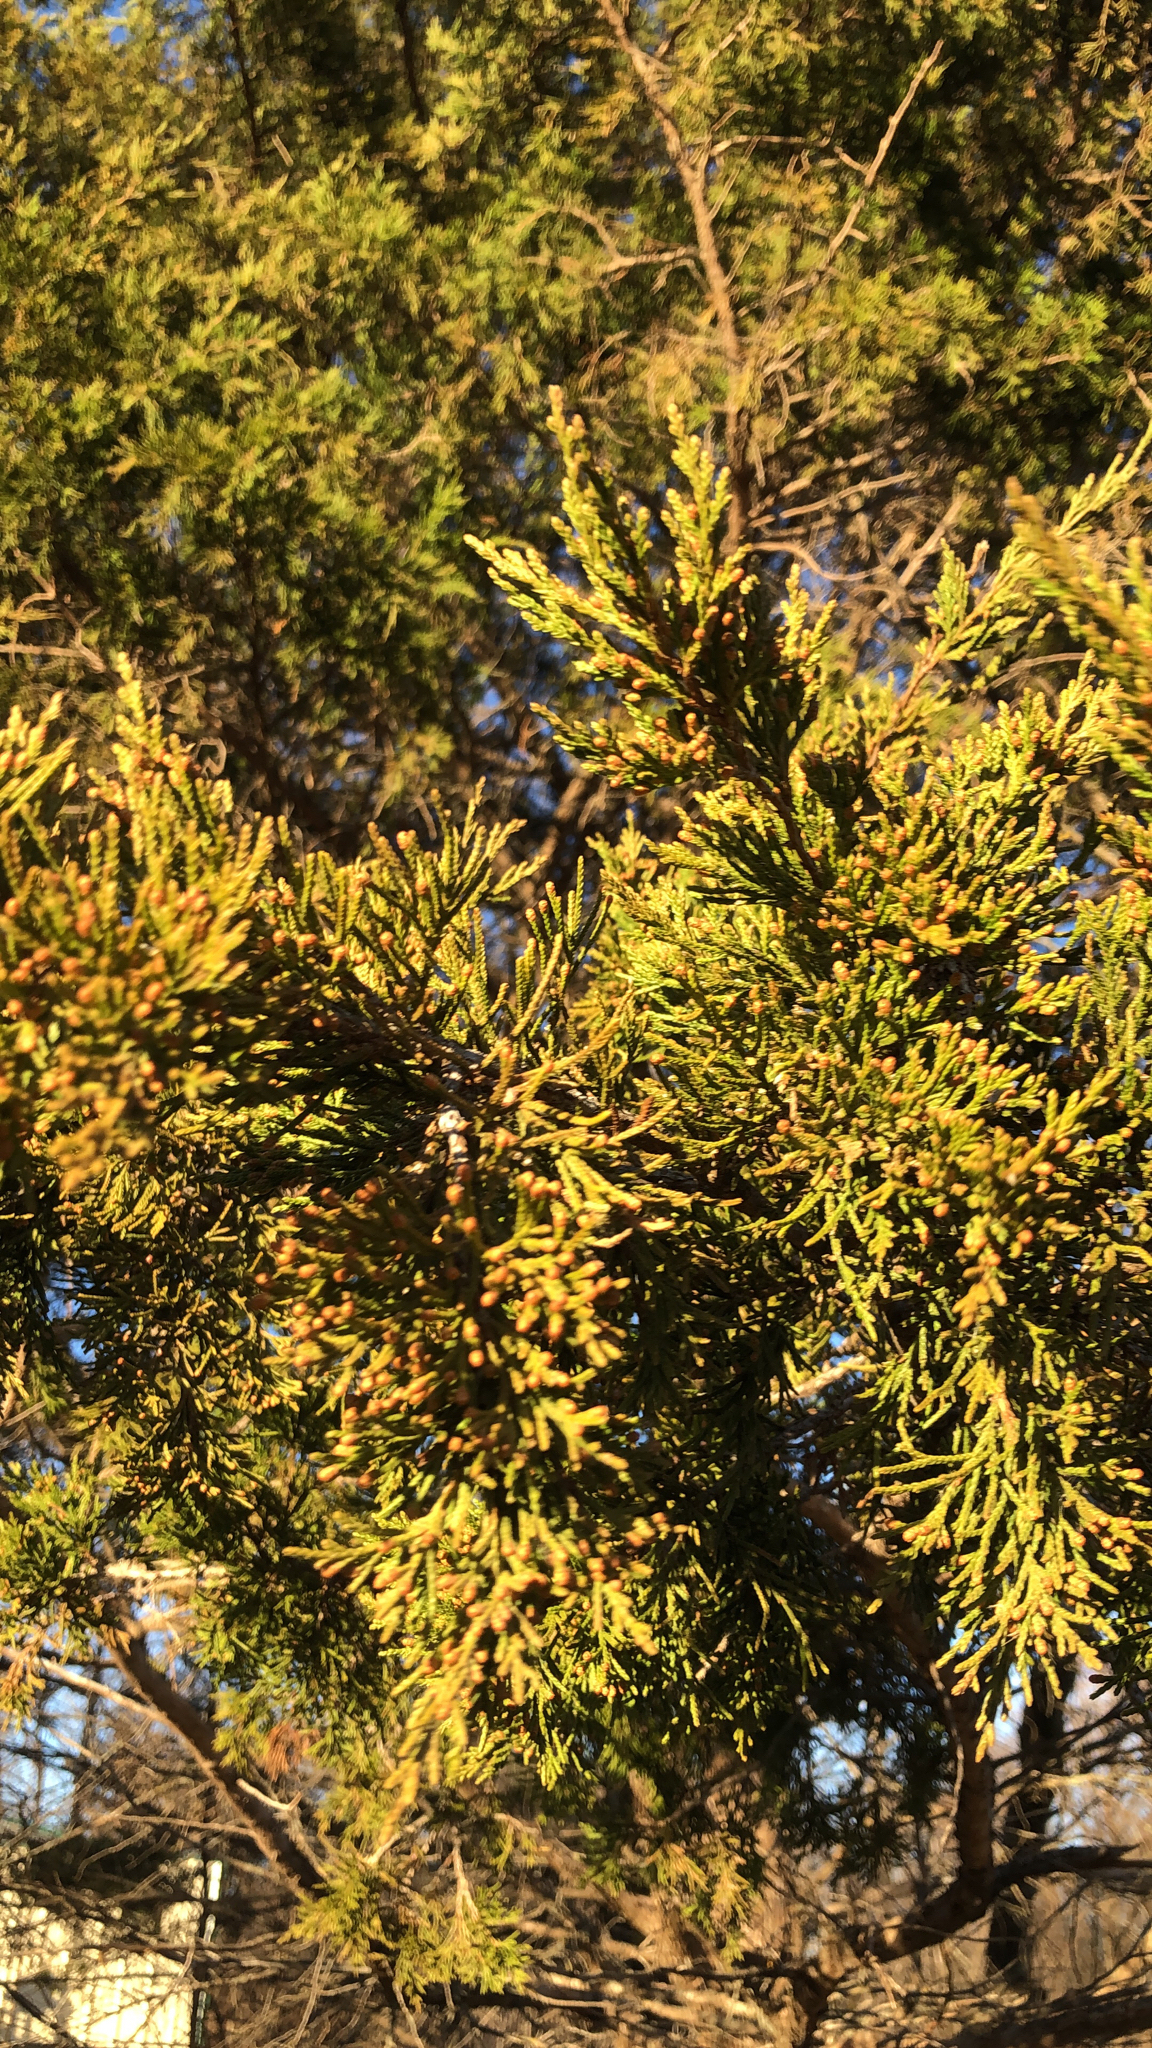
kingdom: Plantae
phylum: Tracheophyta
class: Pinopsida
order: Pinales
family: Cupressaceae
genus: Juniperus
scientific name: Juniperus virginiana
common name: Red juniper
